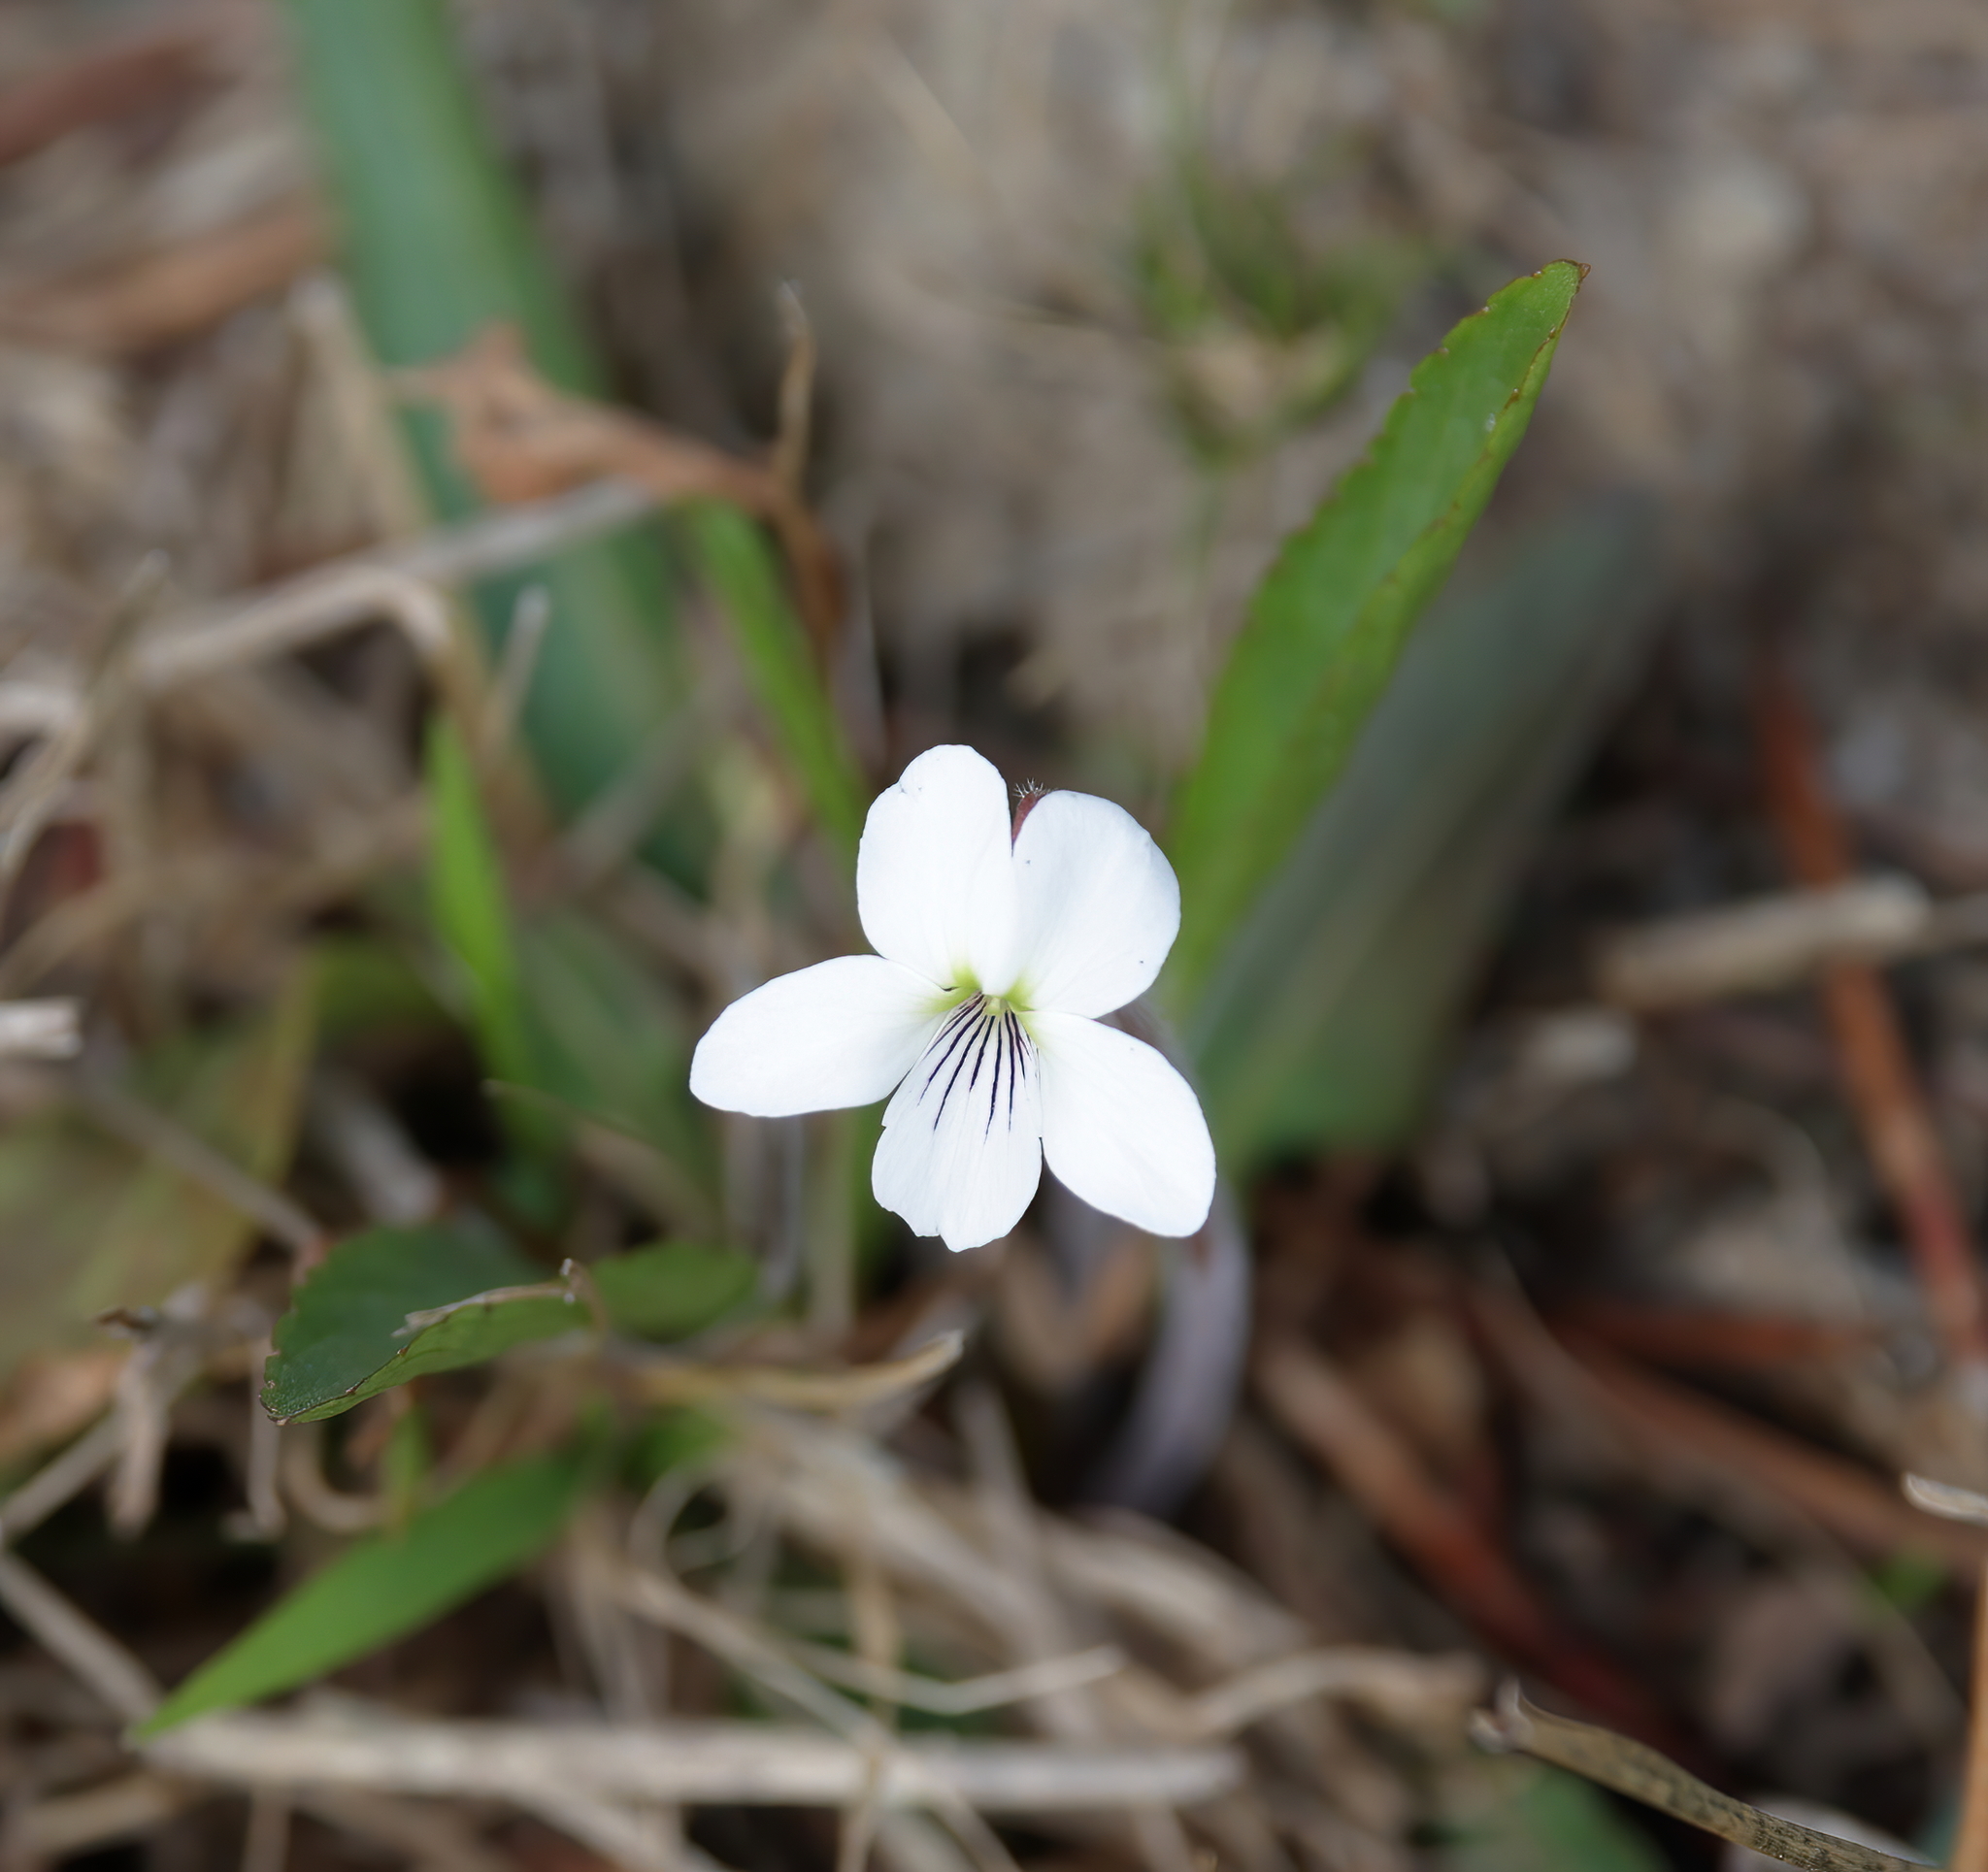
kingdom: Plantae
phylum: Tracheophyta
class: Magnoliopsida
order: Malpighiales
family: Violaceae
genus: Viola
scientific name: Viola lanceolata
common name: Bog white violet
